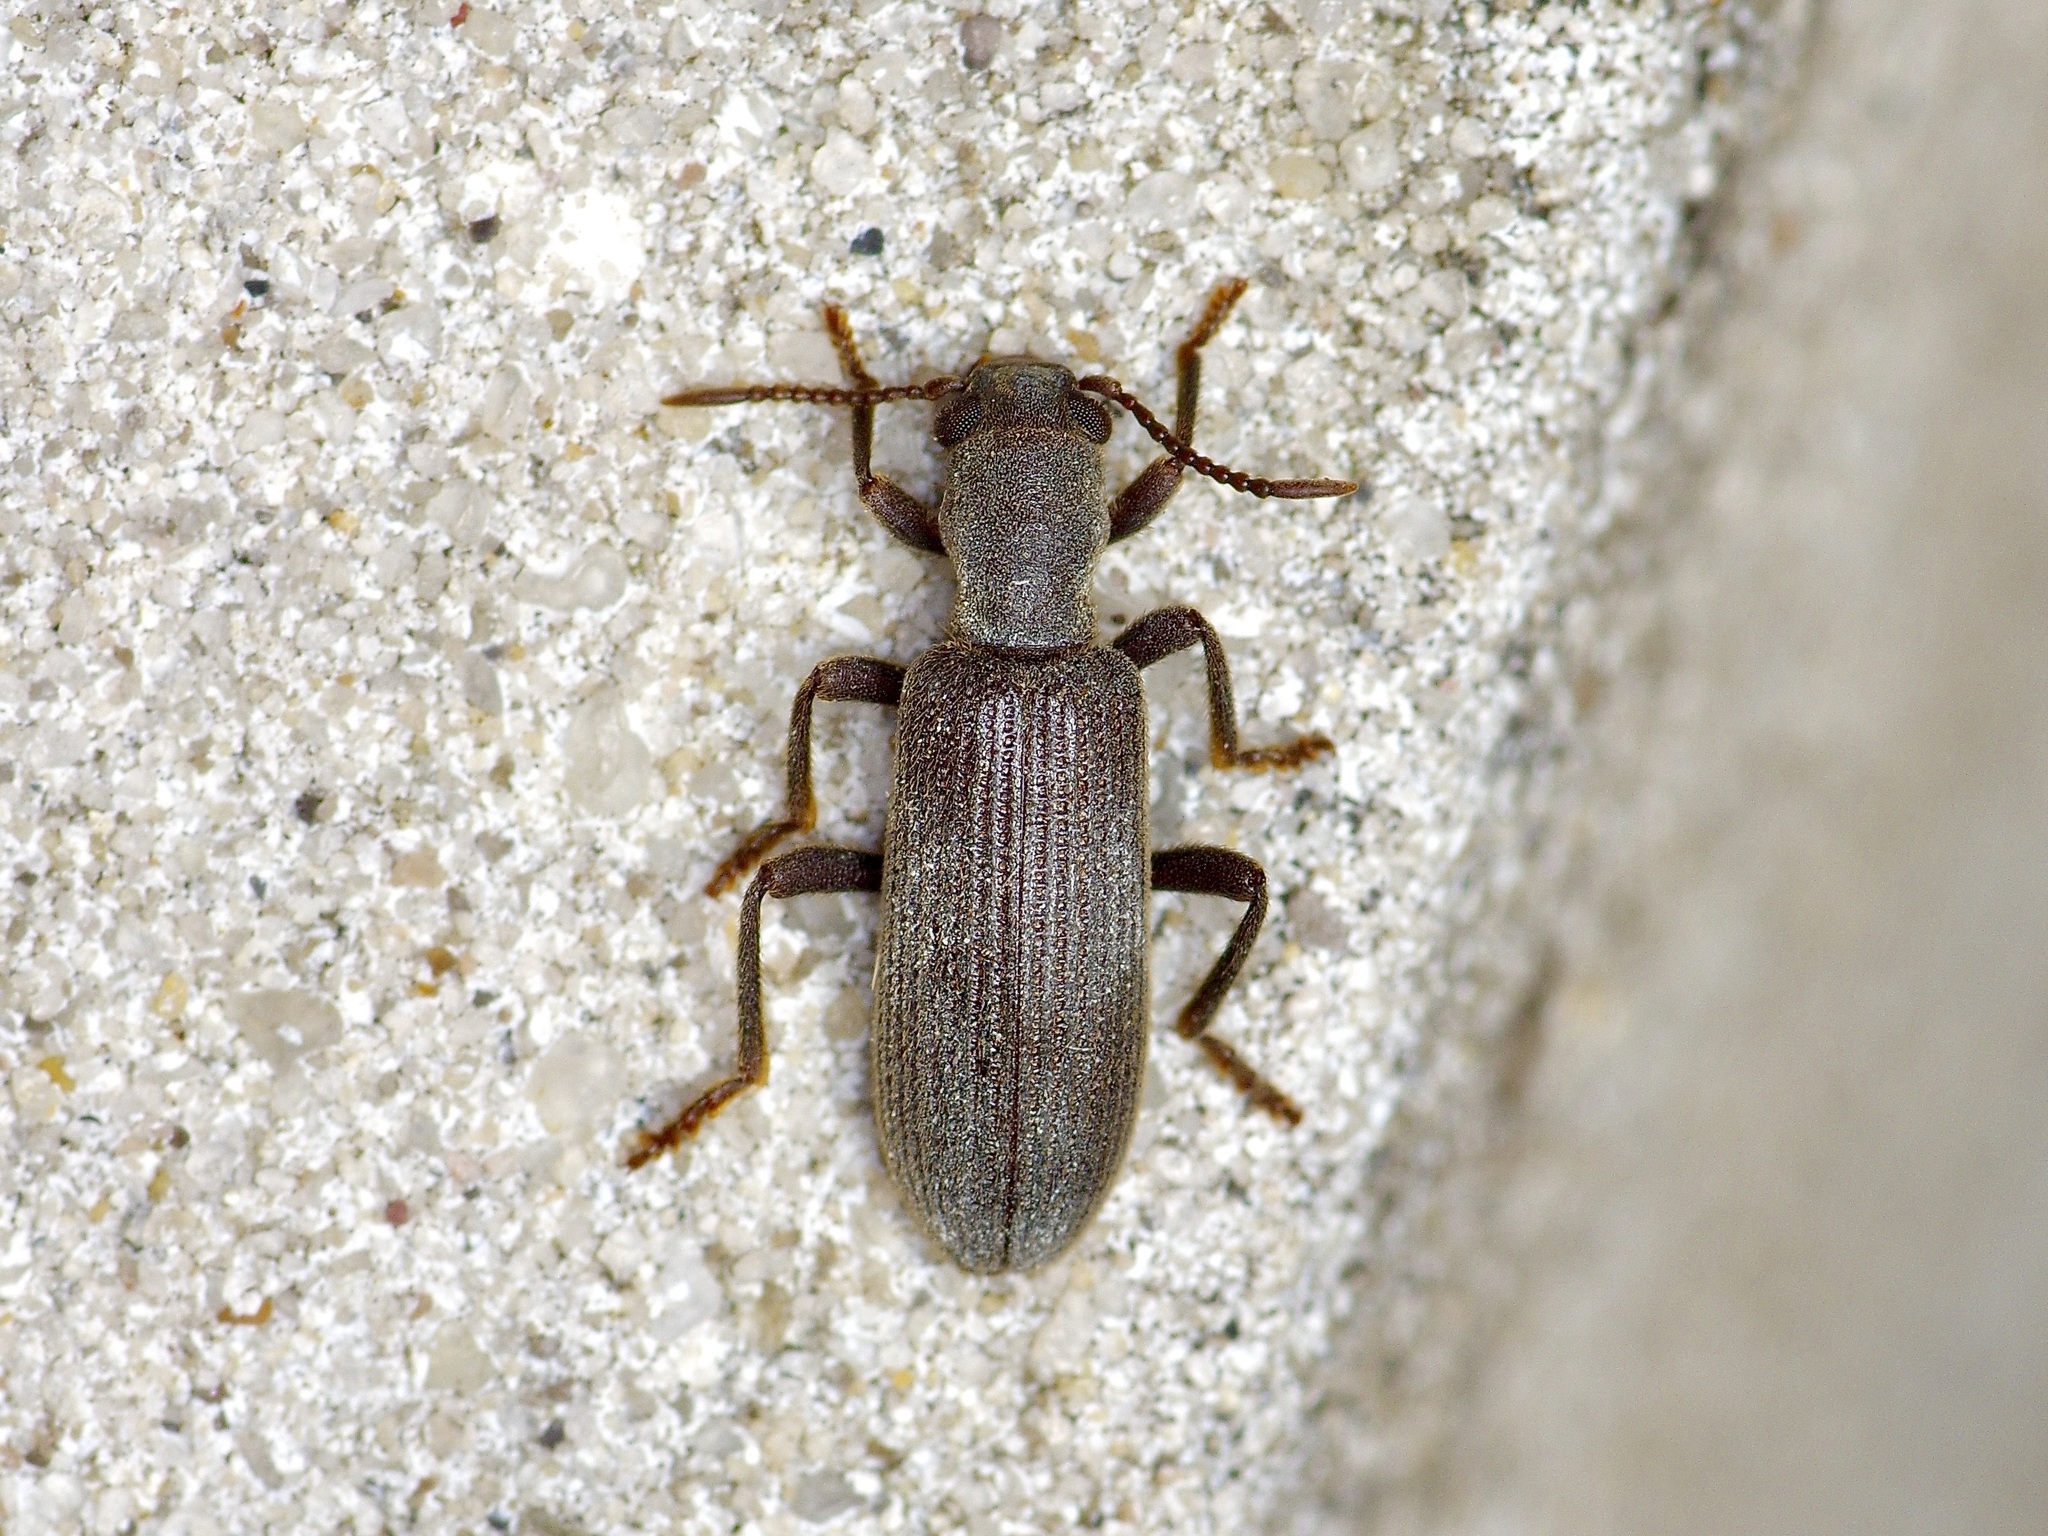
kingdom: Animalia
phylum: Arthropoda
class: Insecta
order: Coleoptera
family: Cleridae
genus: Lecontella
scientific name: Lecontella brunnea
